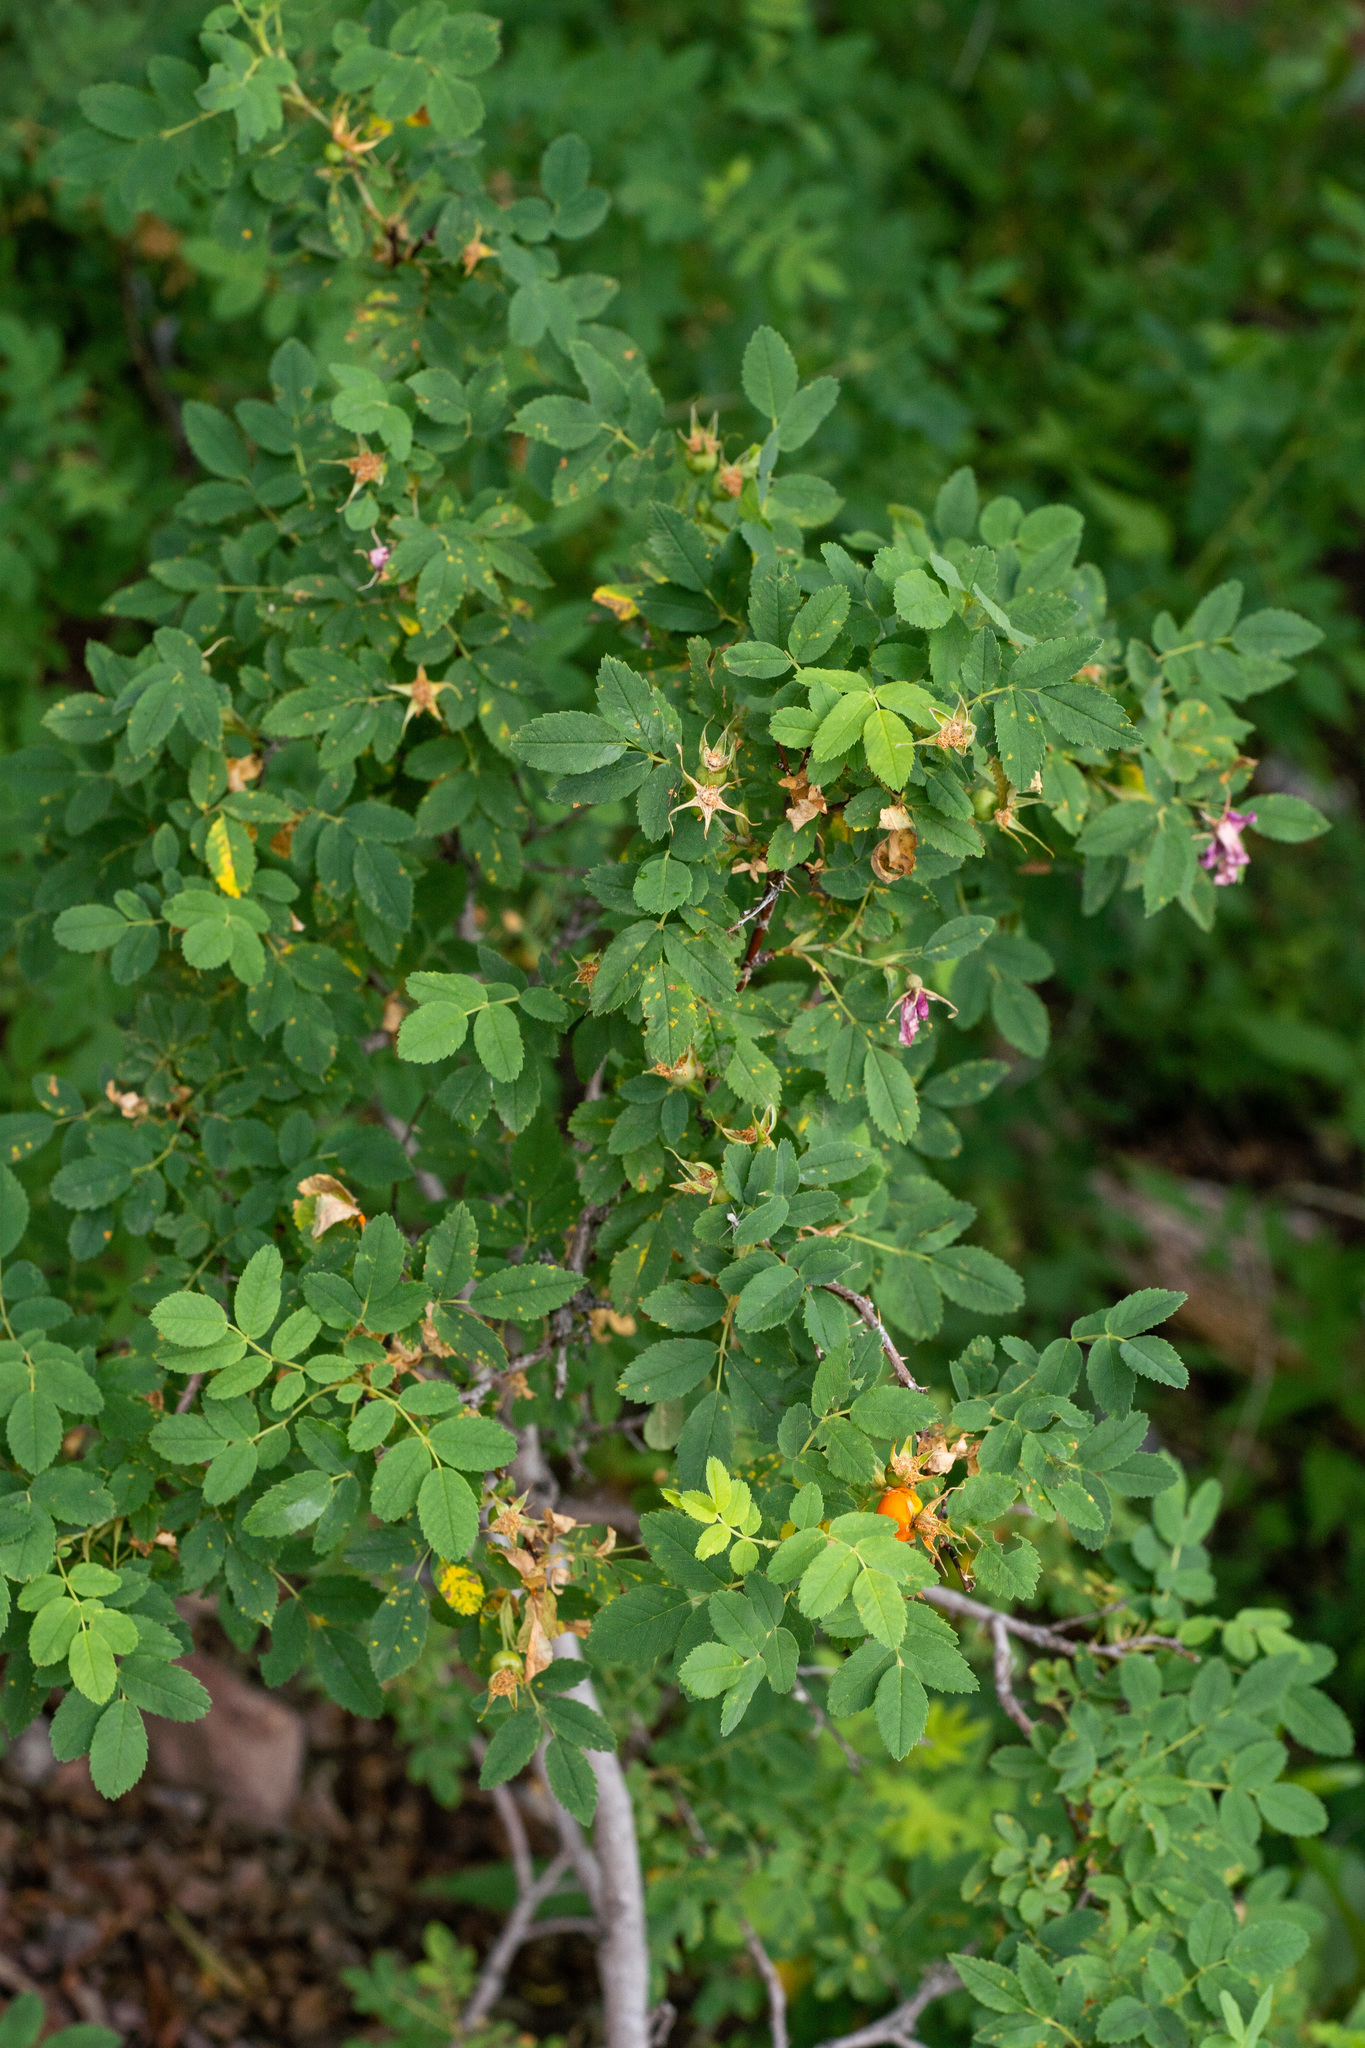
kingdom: Plantae
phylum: Tracheophyta
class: Magnoliopsida
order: Rosales
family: Rosaceae
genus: Rosa
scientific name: Rosa woodsii
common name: Woods's rose
